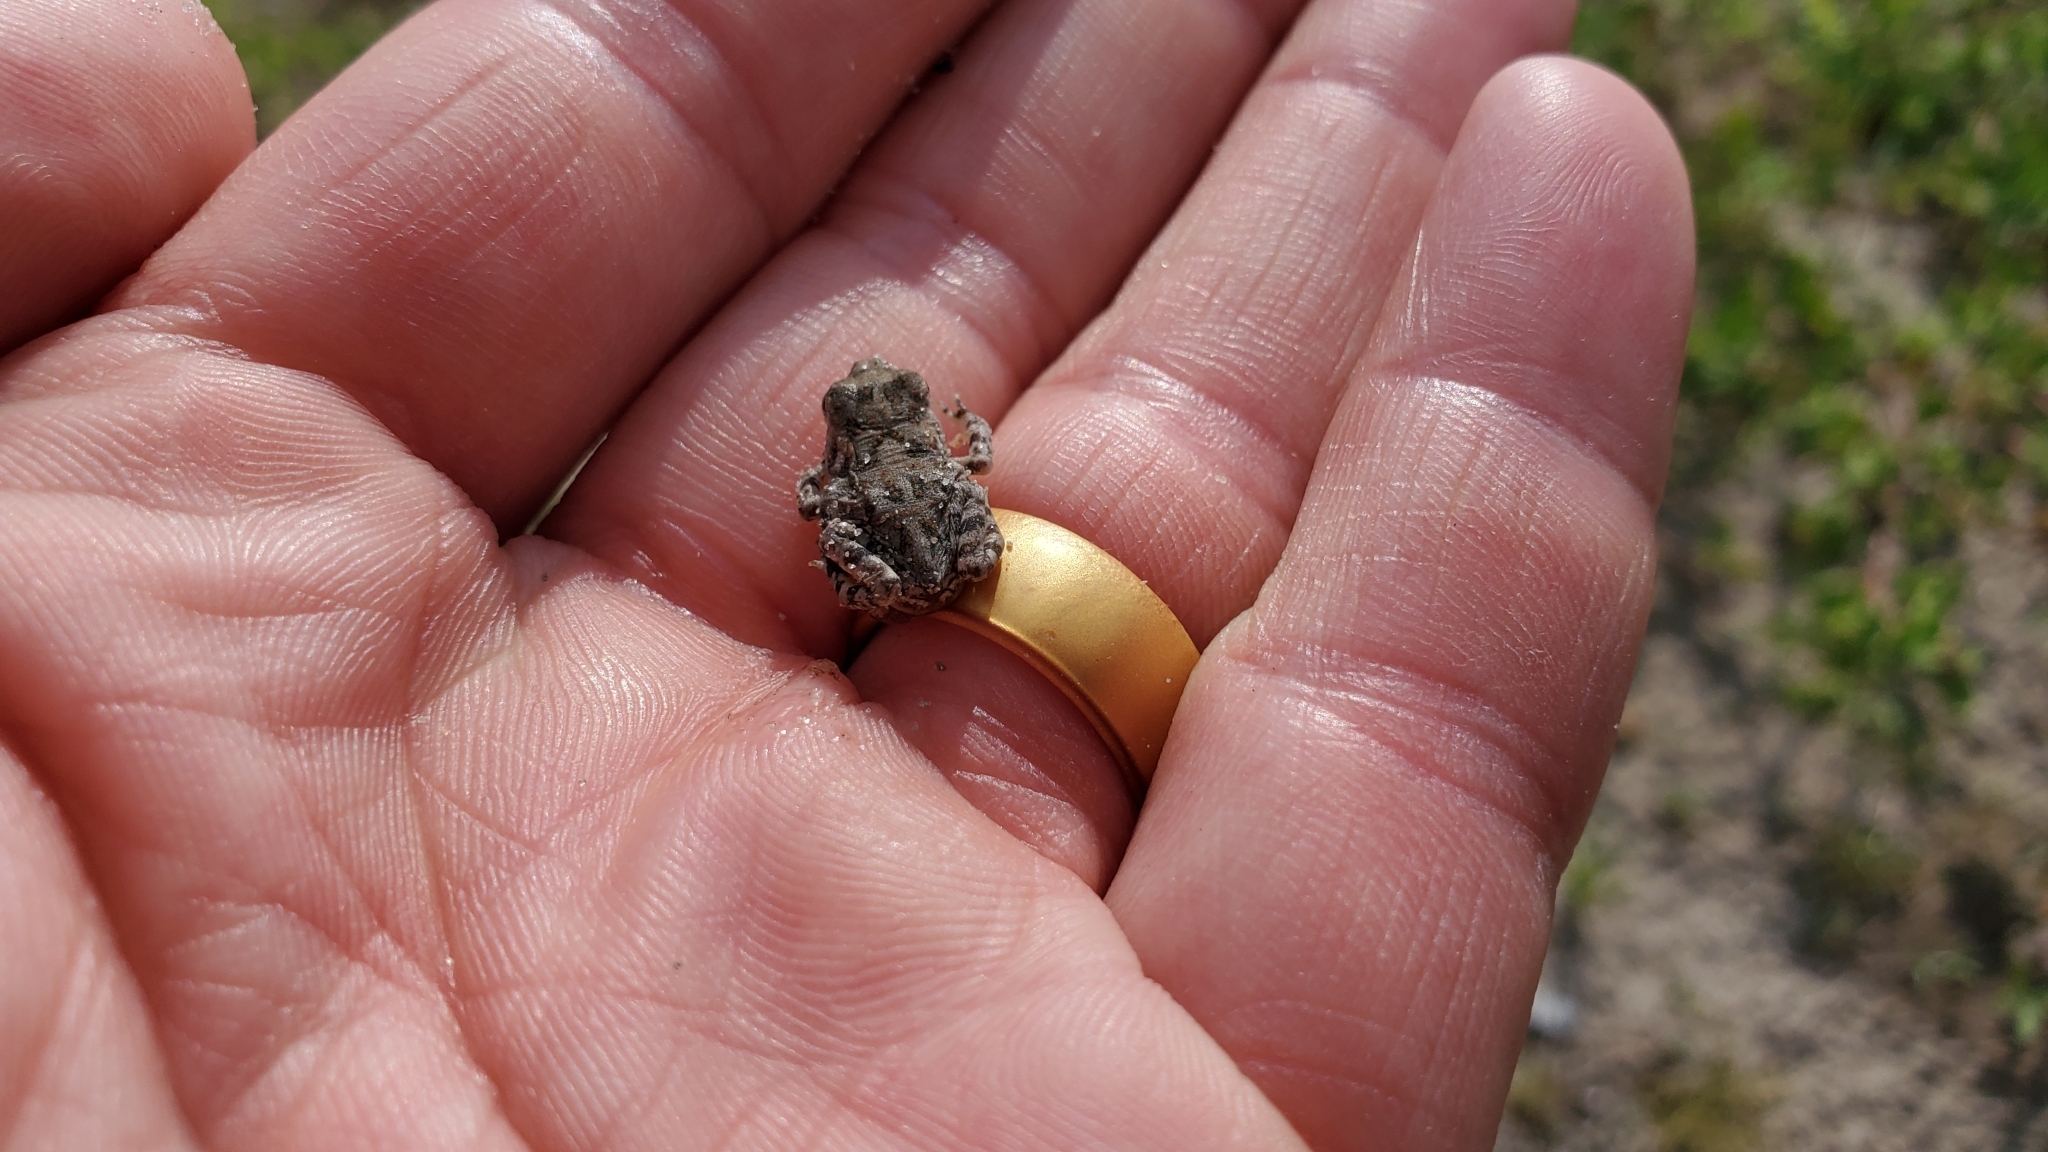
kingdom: Animalia
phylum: Chordata
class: Amphibia
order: Anura
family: Bufonidae
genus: Anaxyrus
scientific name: Anaxyrus terrestris
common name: Southern toad
